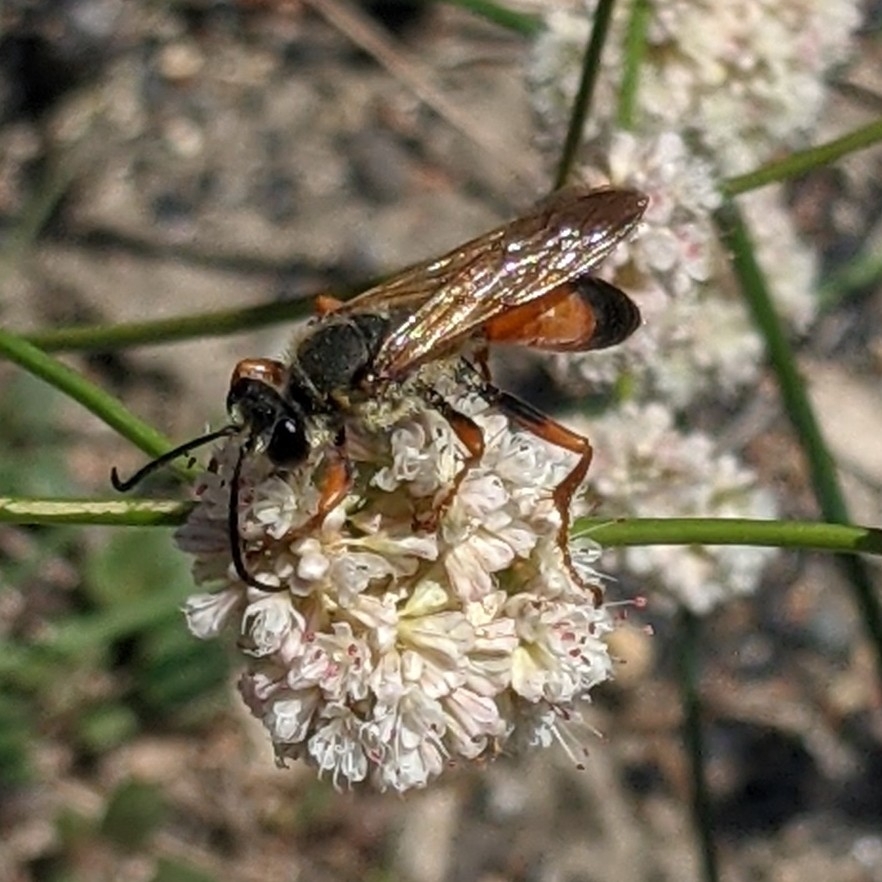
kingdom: Animalia
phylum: Arthropoda
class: Insecta
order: Hymenoptera
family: Sphecidae
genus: Sphex
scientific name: Sphex ichneumoneus
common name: Great golden digger wasp
